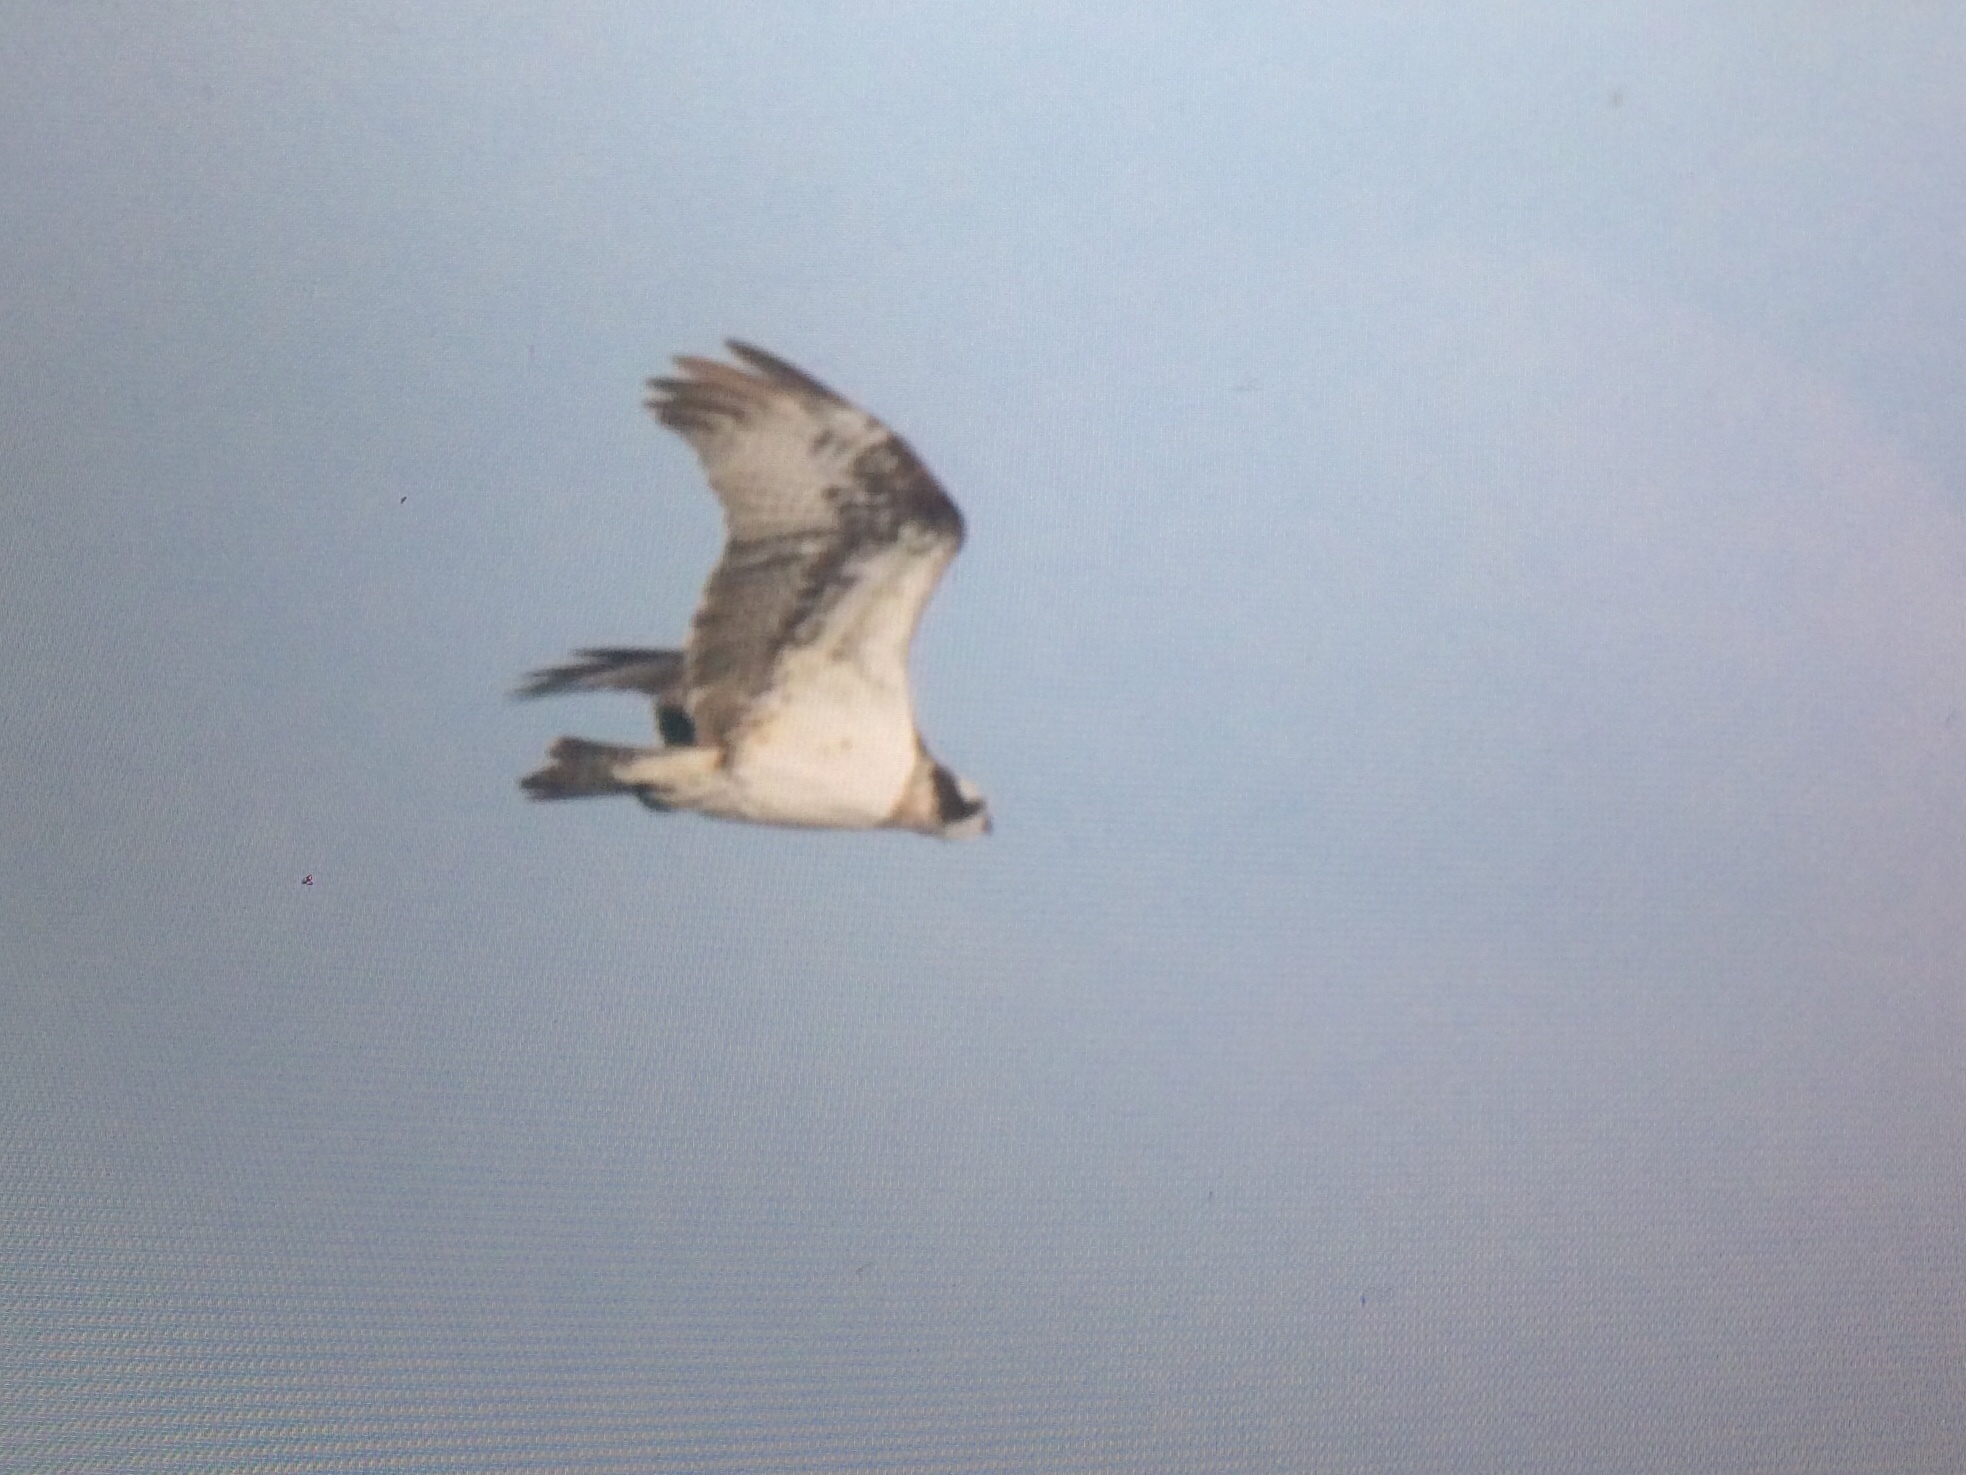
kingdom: Animalia
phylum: Chordata
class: Aves
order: Accipitriformes
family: Pandionidae
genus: Pandion
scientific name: Pandion haliaetus
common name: Osprey
